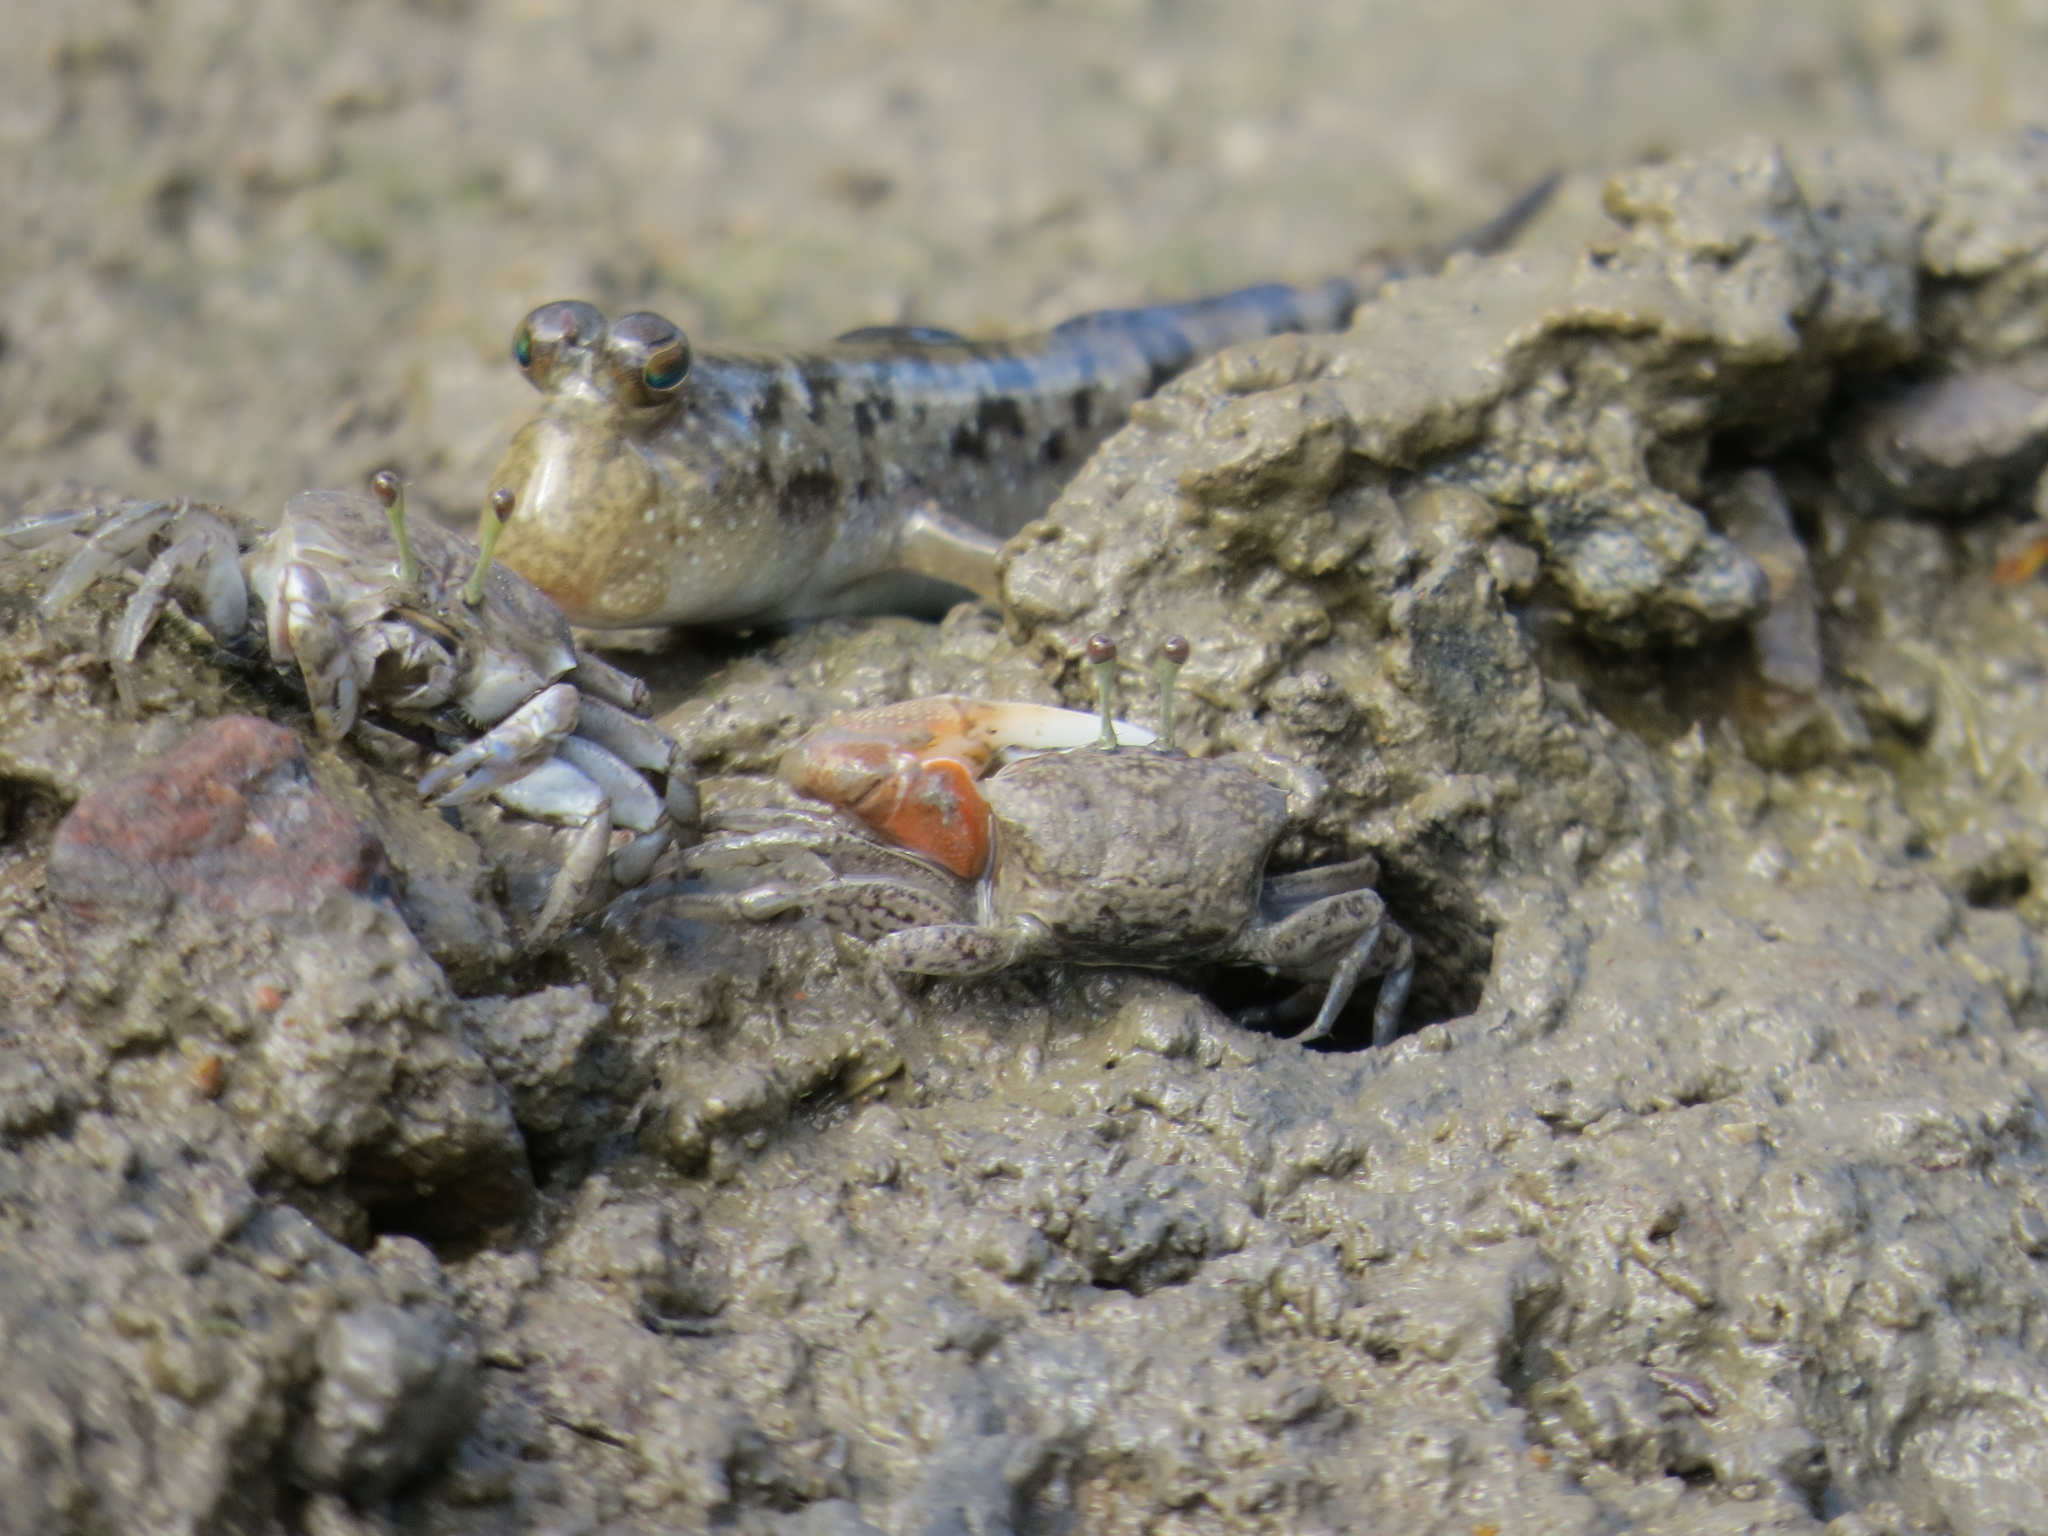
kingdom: Animalia
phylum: Arthropoda
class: Malacostraca
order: Decapoda
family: Ocypodidae
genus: Tubuca
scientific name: Tubuca seismella
